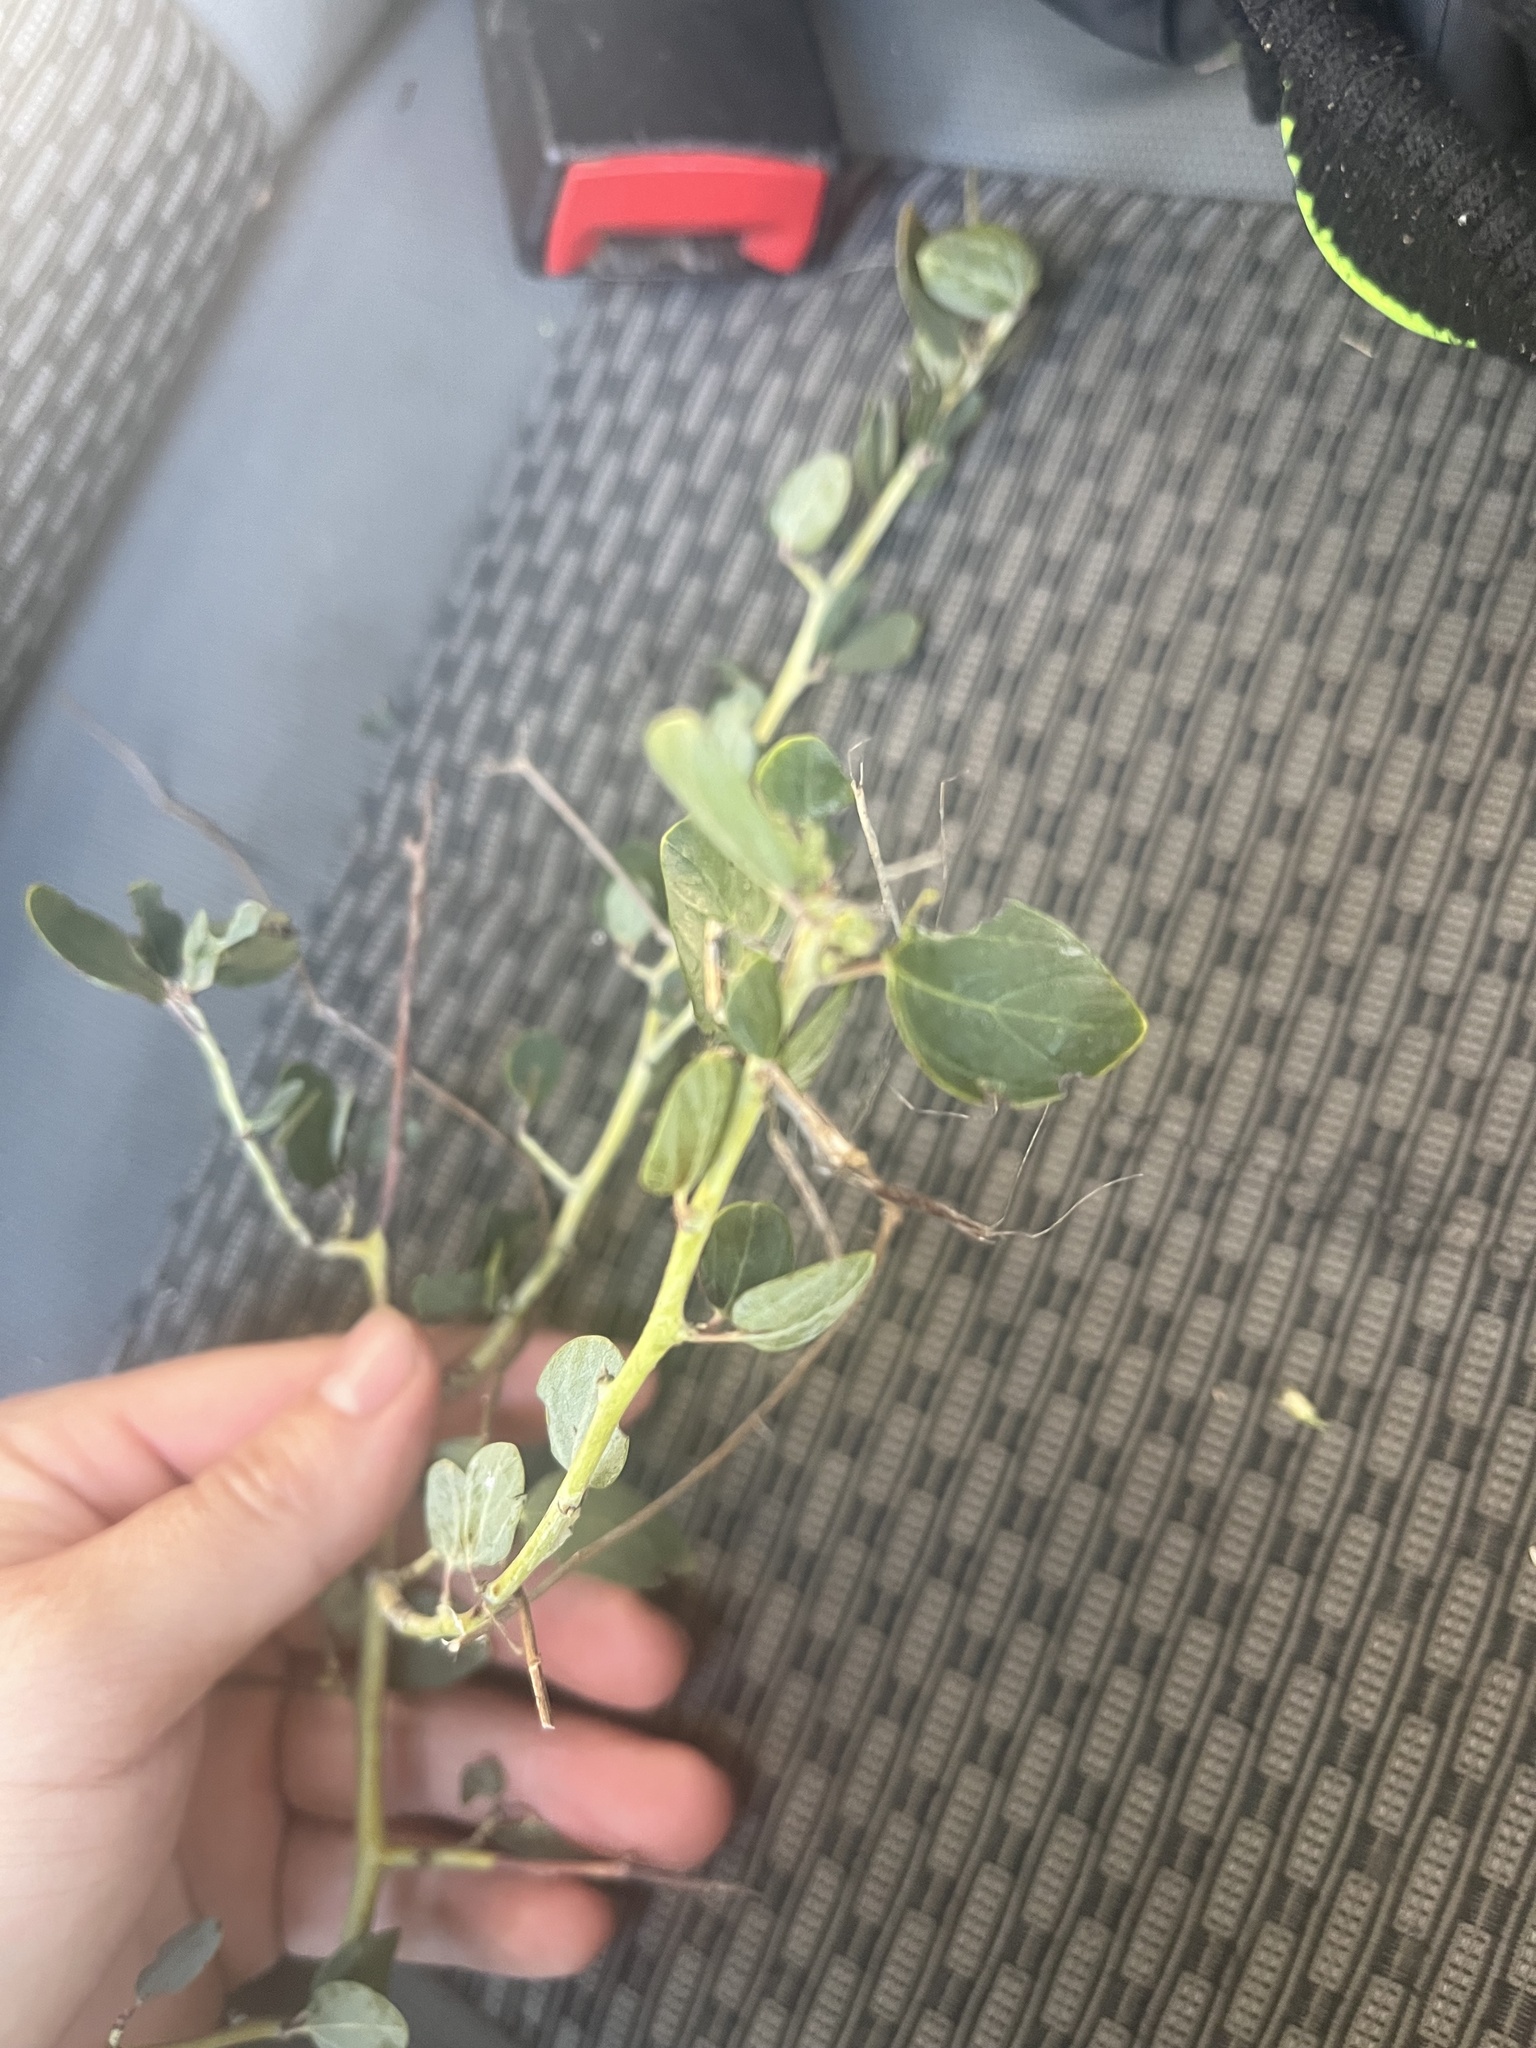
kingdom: Plantae
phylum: Tracheophyta
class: Magnoliopsida
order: Rosales
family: Rhamnaceae
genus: Ceanothus
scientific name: Ceanothus leucodermis
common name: Chaparral whitethorn
